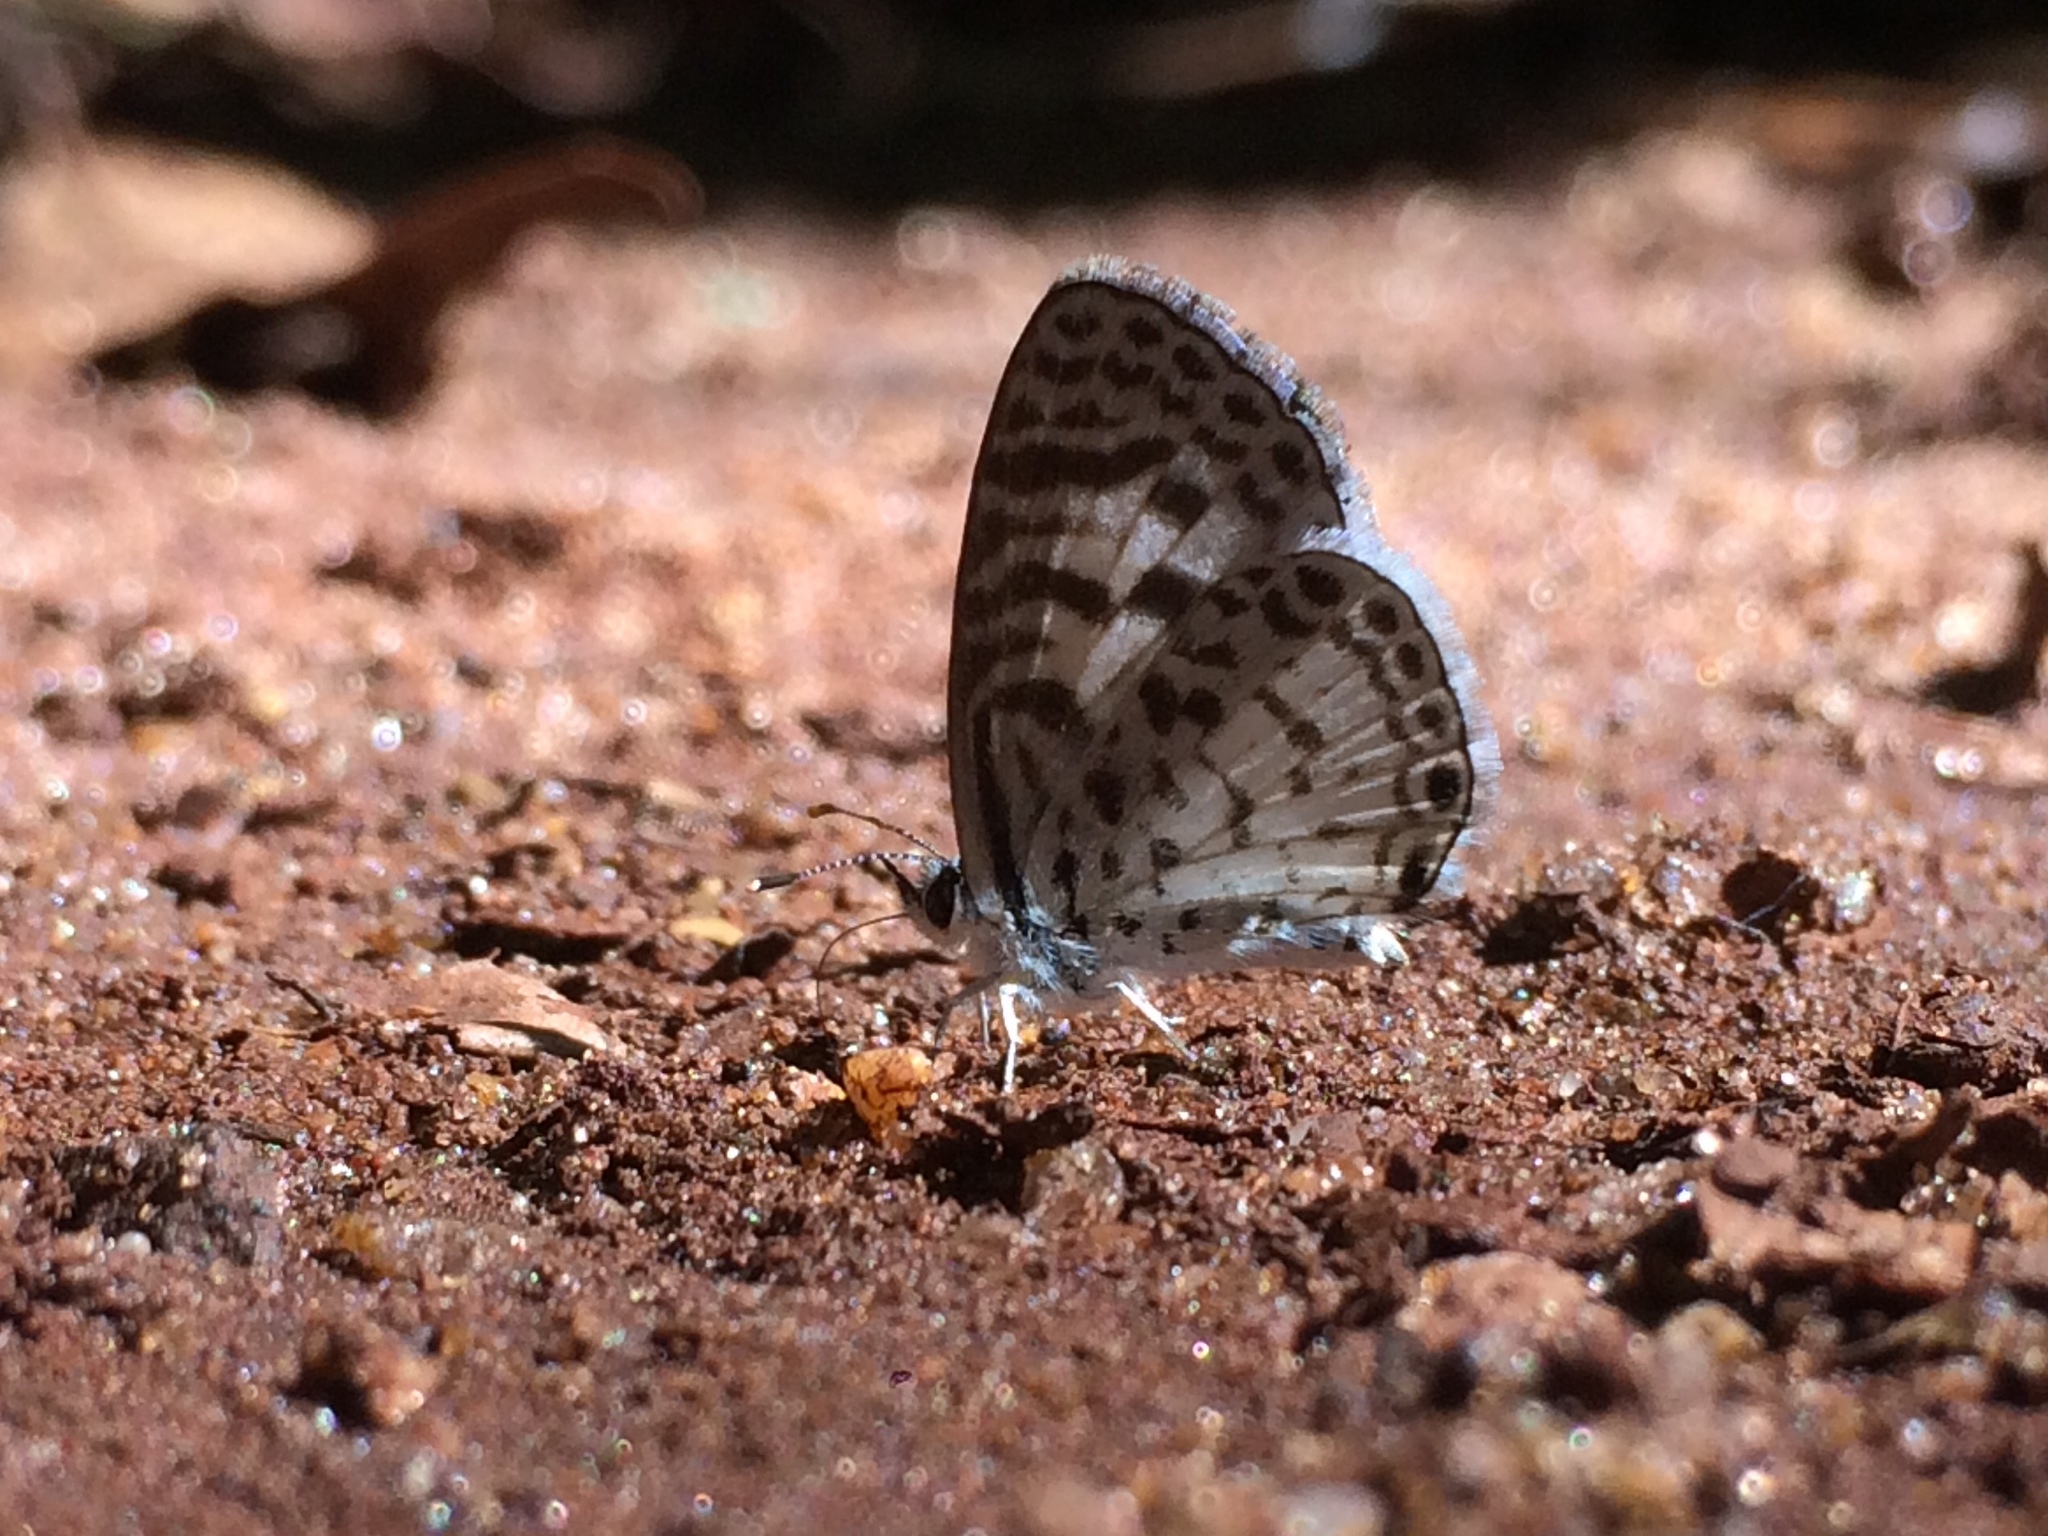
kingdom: Animalia
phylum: Arthropoda
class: Insecta
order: Lepidoptera
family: Lycaenidae
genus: Leptotes
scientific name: Leptotes cassius
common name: Cassius blue
